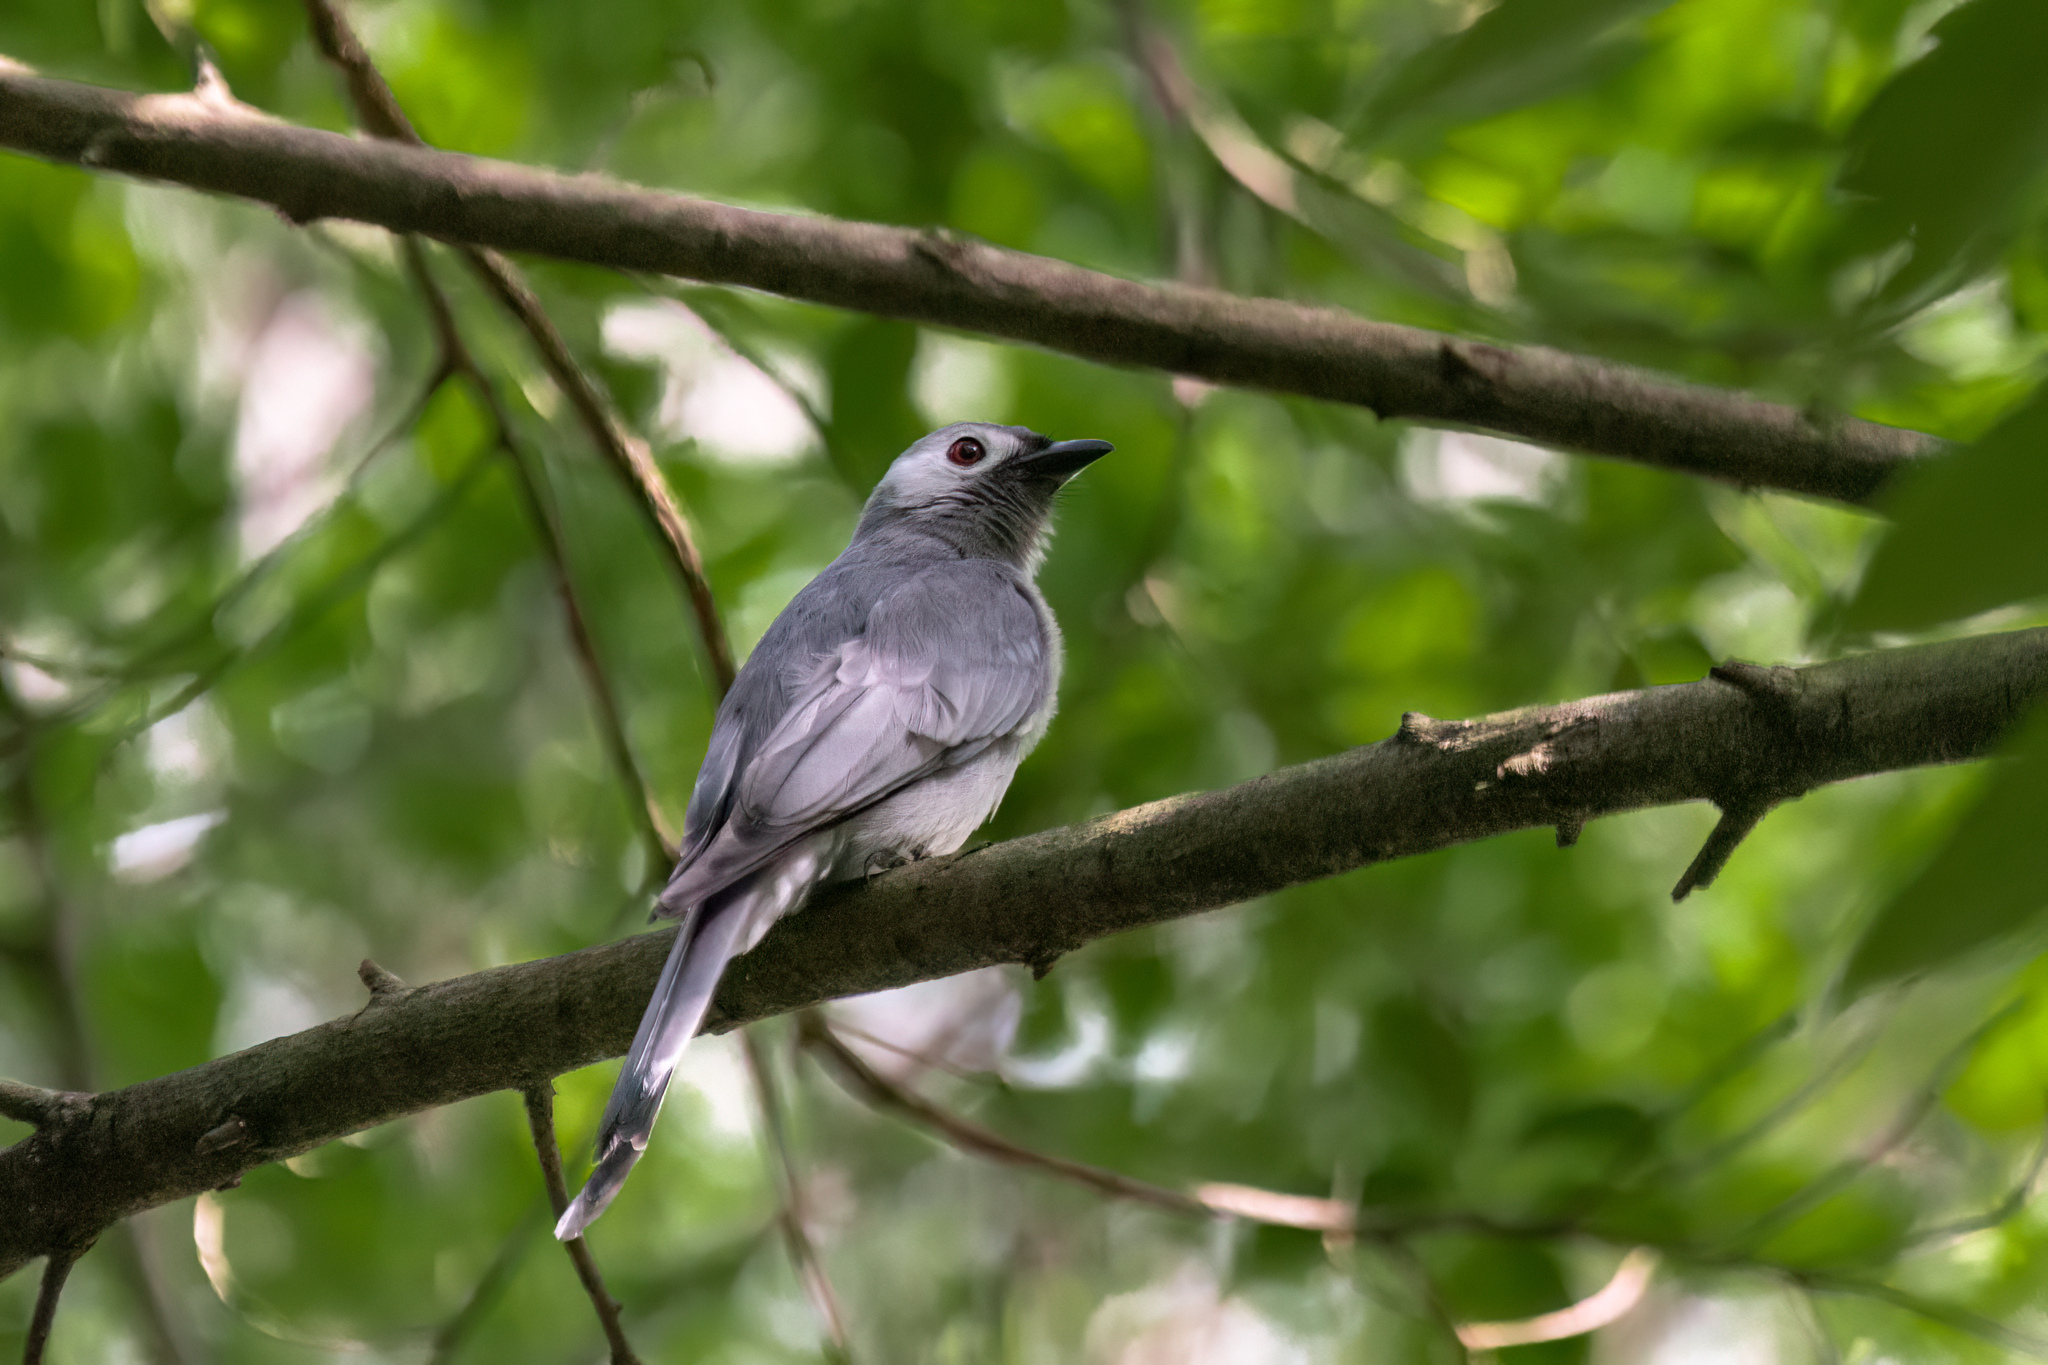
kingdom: Animalia
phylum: Chordata
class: Aves
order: Passeriformes
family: Dicruridae
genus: Dicrurus
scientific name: Dicrurus leucophaeus
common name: Ashy drongo
